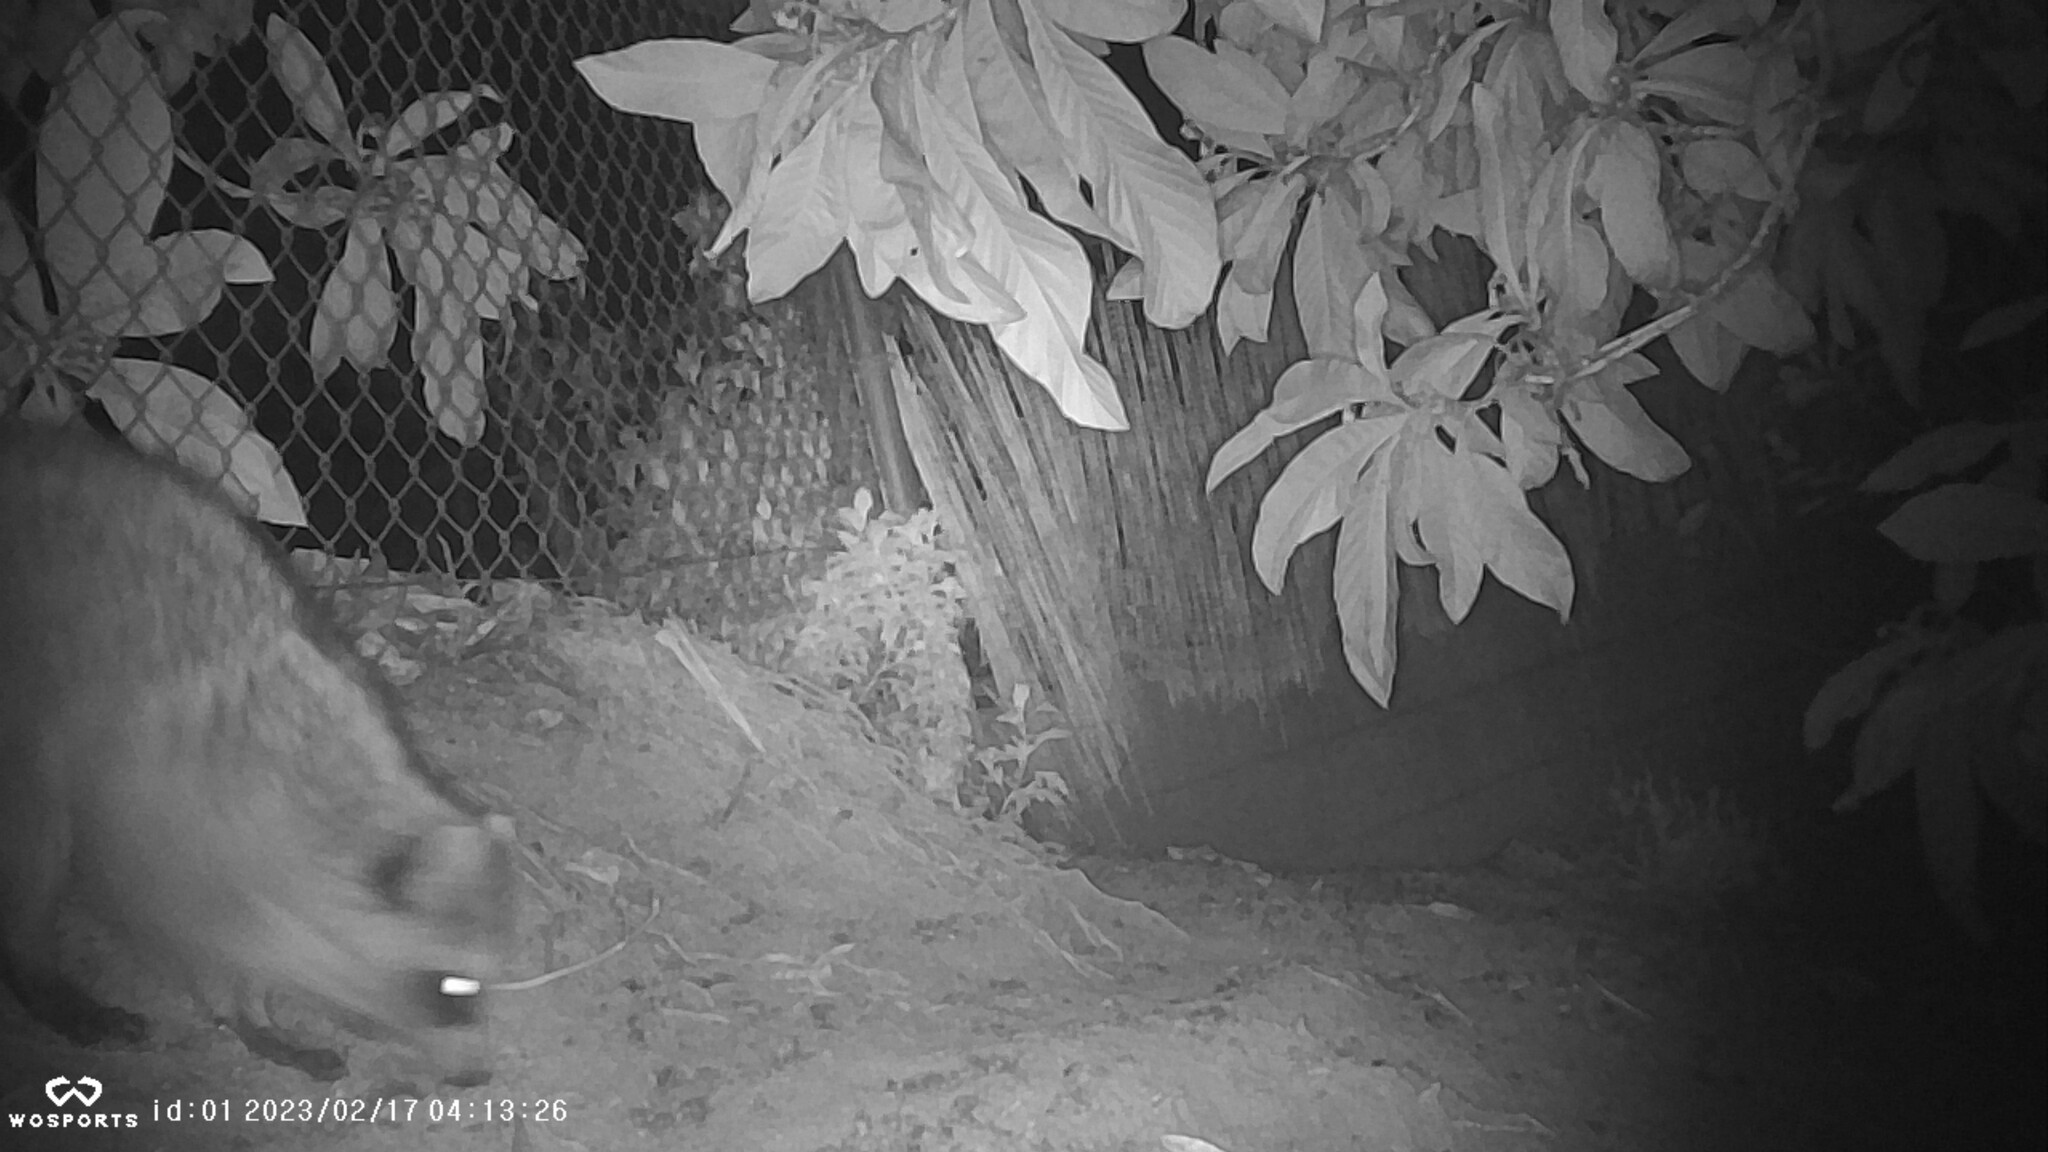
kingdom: Animalia
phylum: Chordata
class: Mammalia
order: Carnivora
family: Procyonidae
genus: Procyon
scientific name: Procyon lotor
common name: Raccoon
